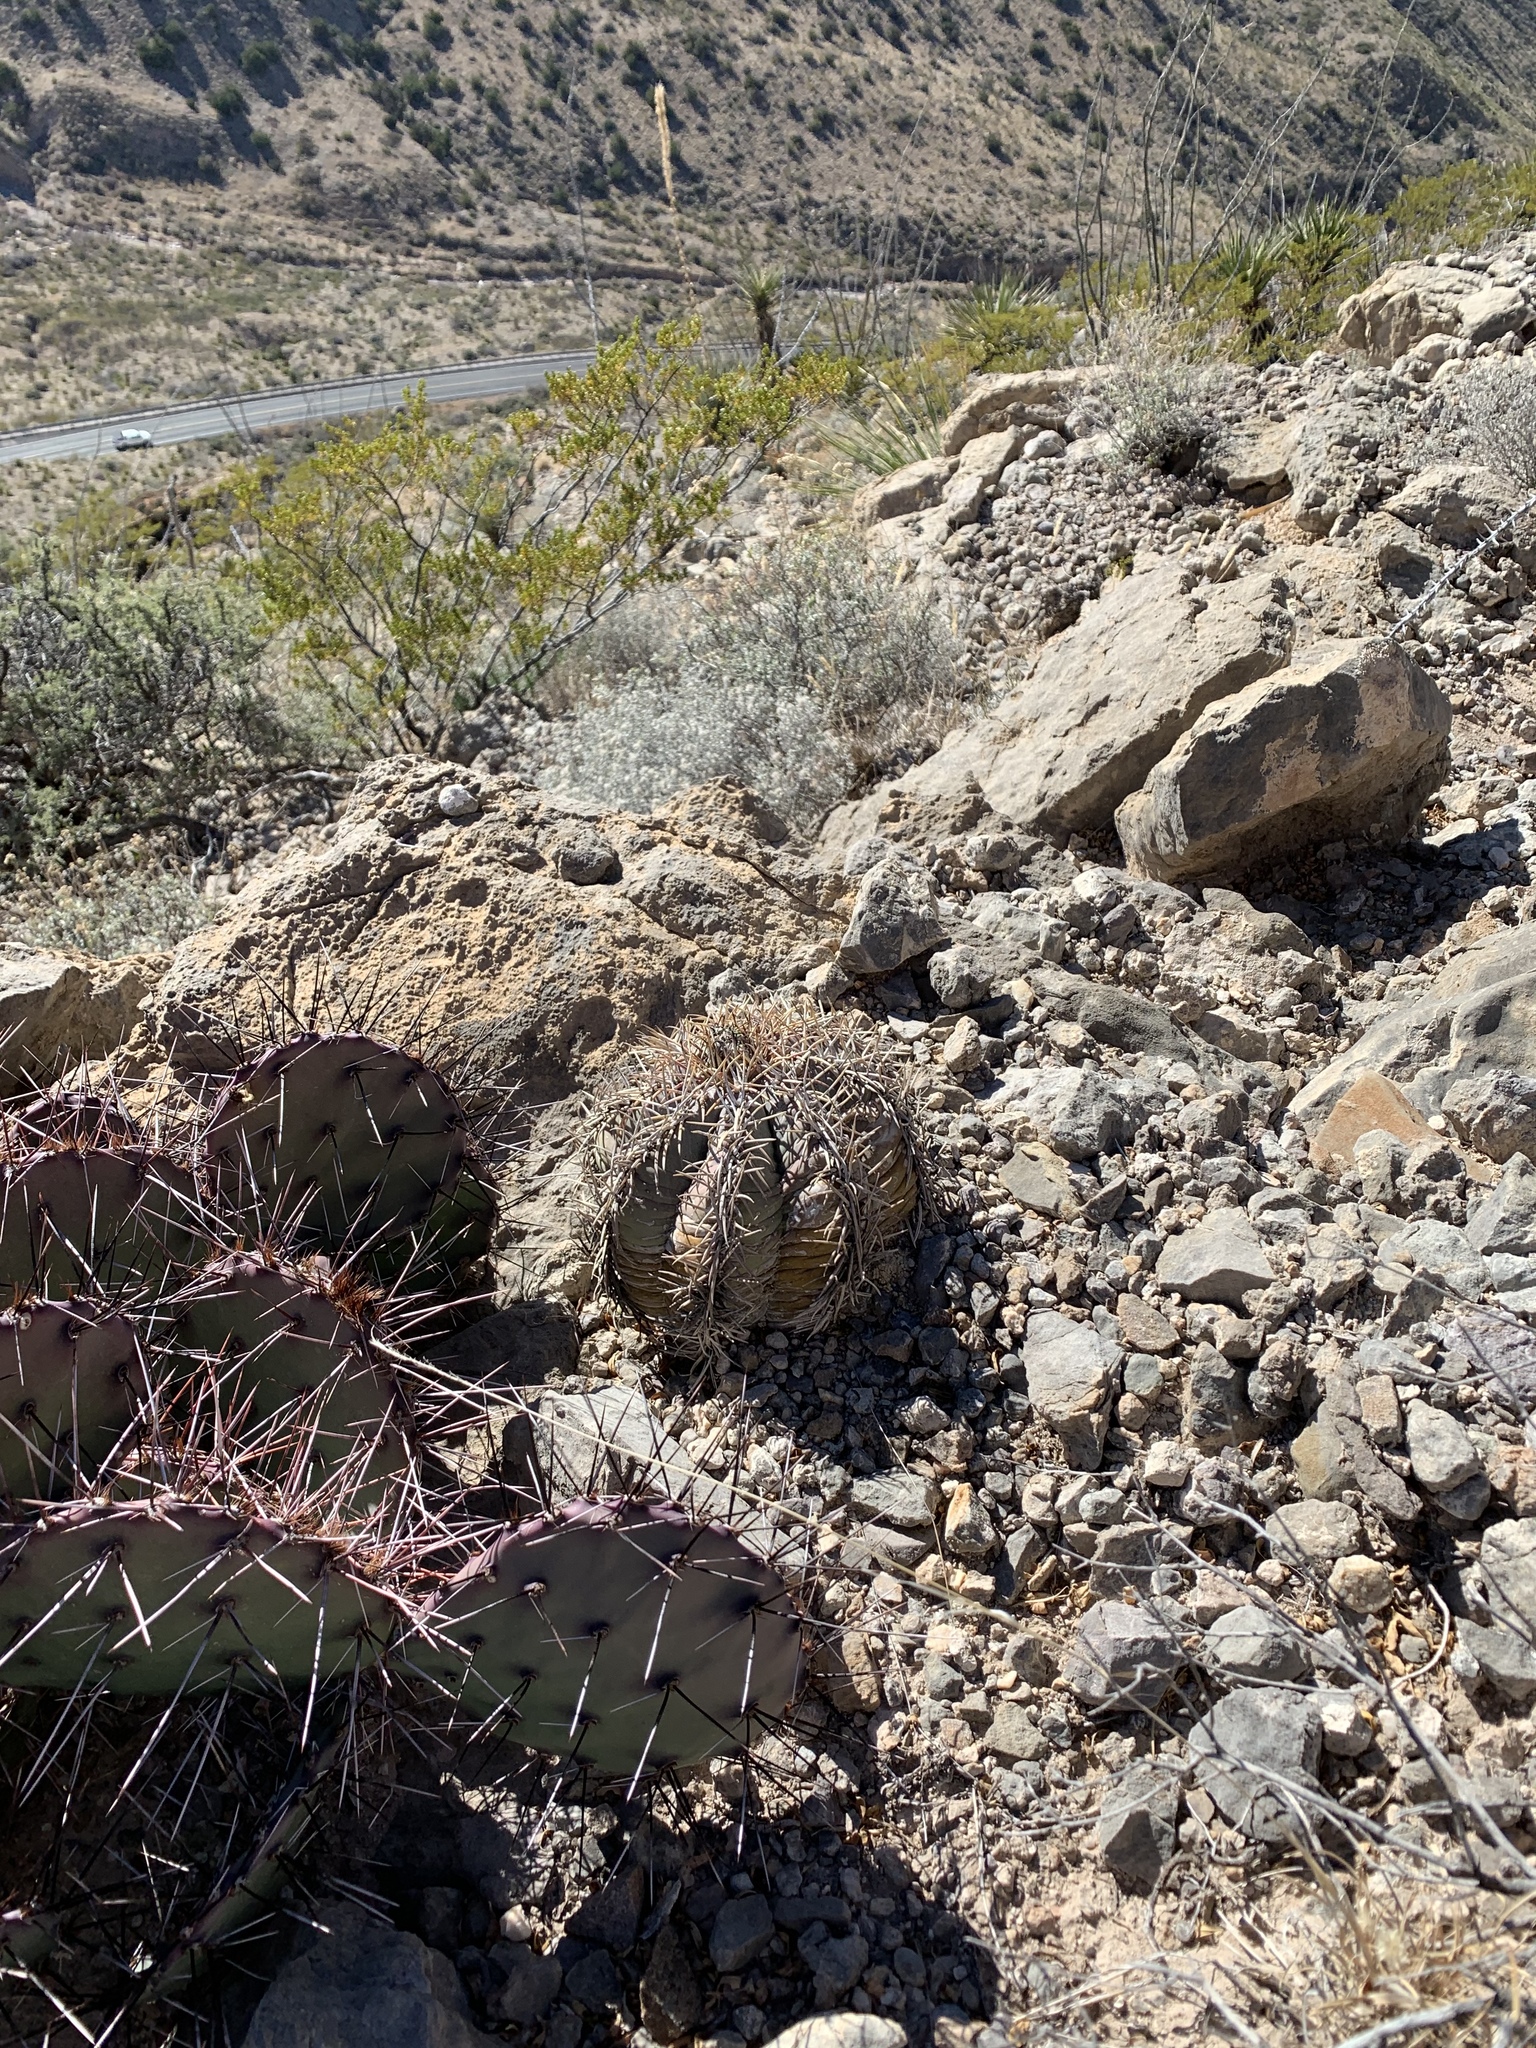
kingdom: Plantae
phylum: Tracheophyta
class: Magnoliopsida
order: Caryophyllales
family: Cactaceae
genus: Echinocactus
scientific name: Echinocactus horizonthalonius
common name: Devilshead
